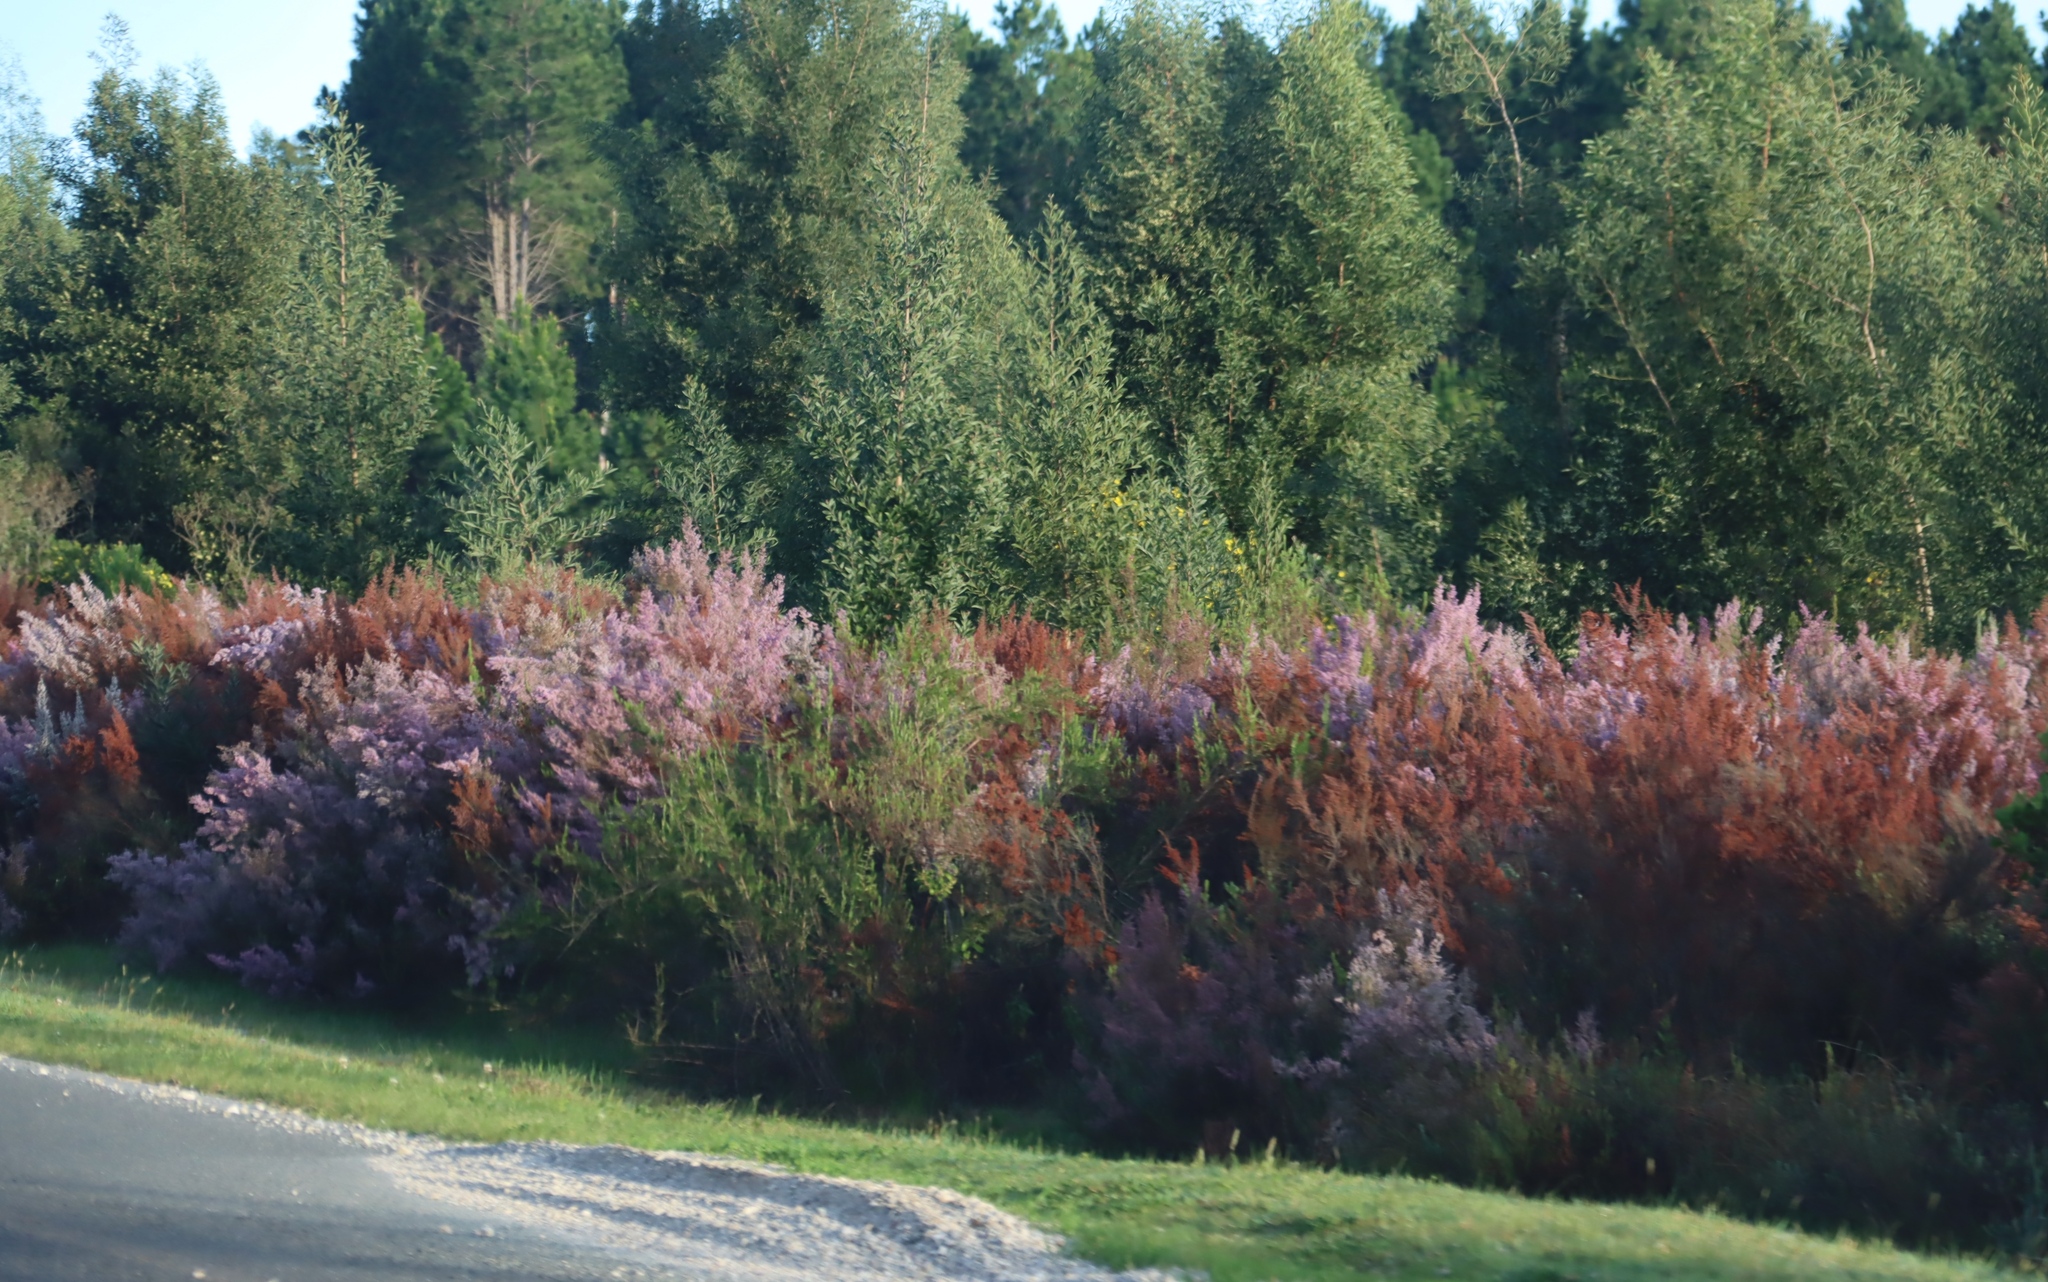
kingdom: Plantae
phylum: Tracheophyta
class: Magnoliopsida
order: Fabales
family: Fabaceae
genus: Acacia
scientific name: Acacia melanoxylon
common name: Blackwood
